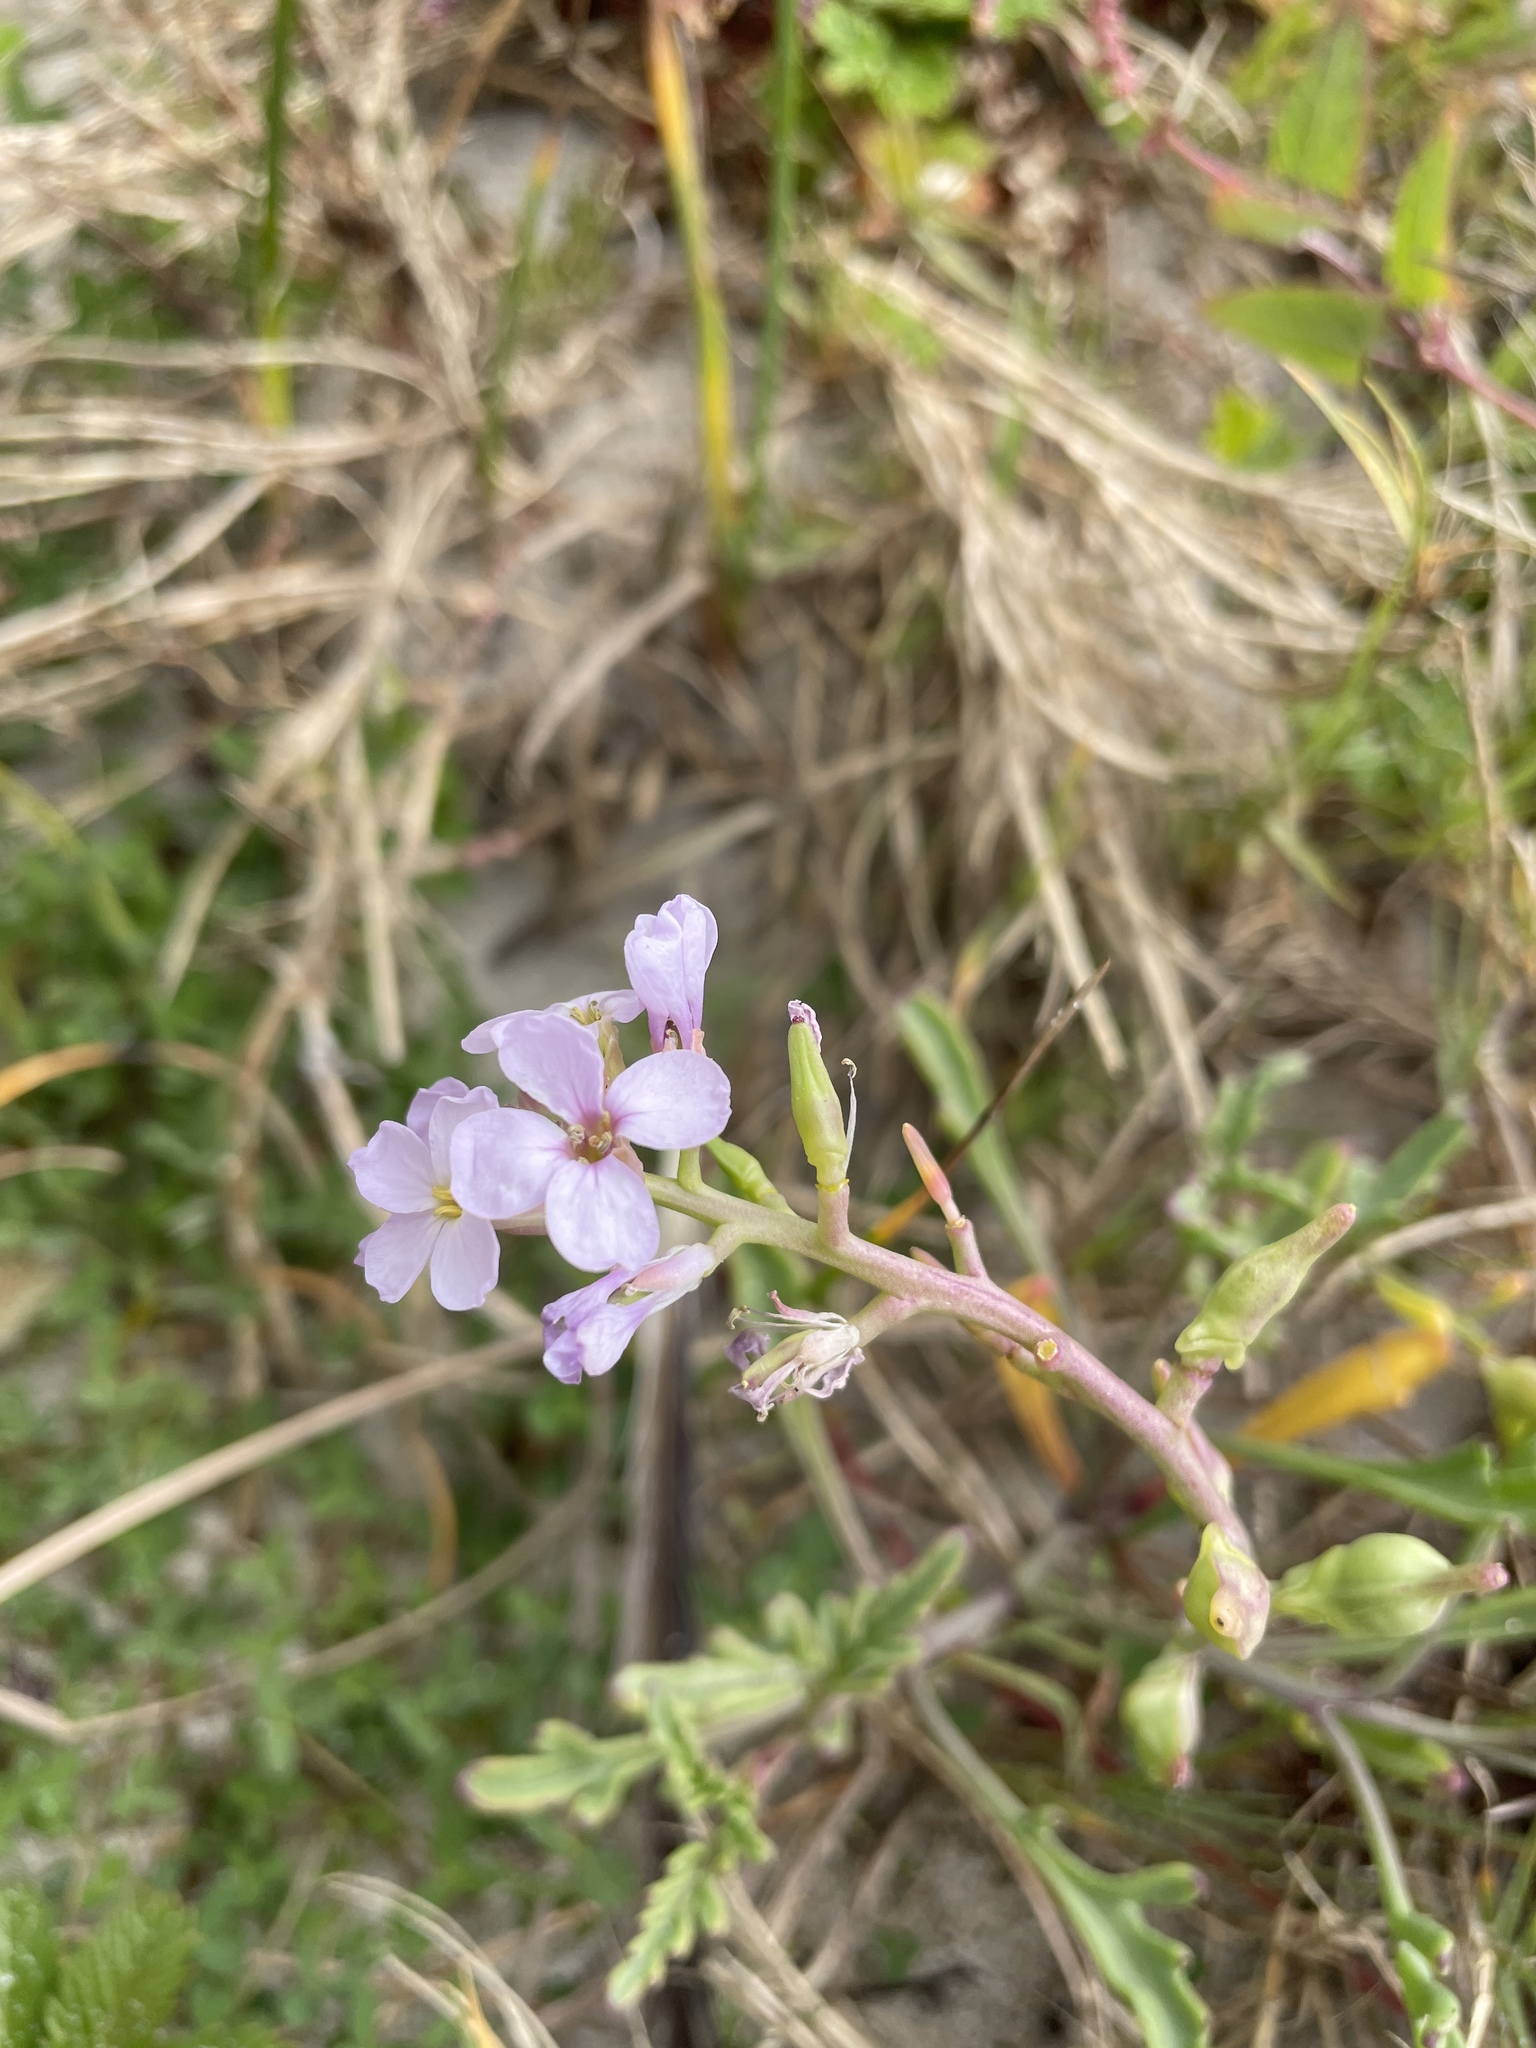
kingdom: Plantae
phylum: Tracheophyta
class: Magnoliopsida
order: Brassicales
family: Brassicaceae
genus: Cakile
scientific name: Cakile maritima
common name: Sea rocket
